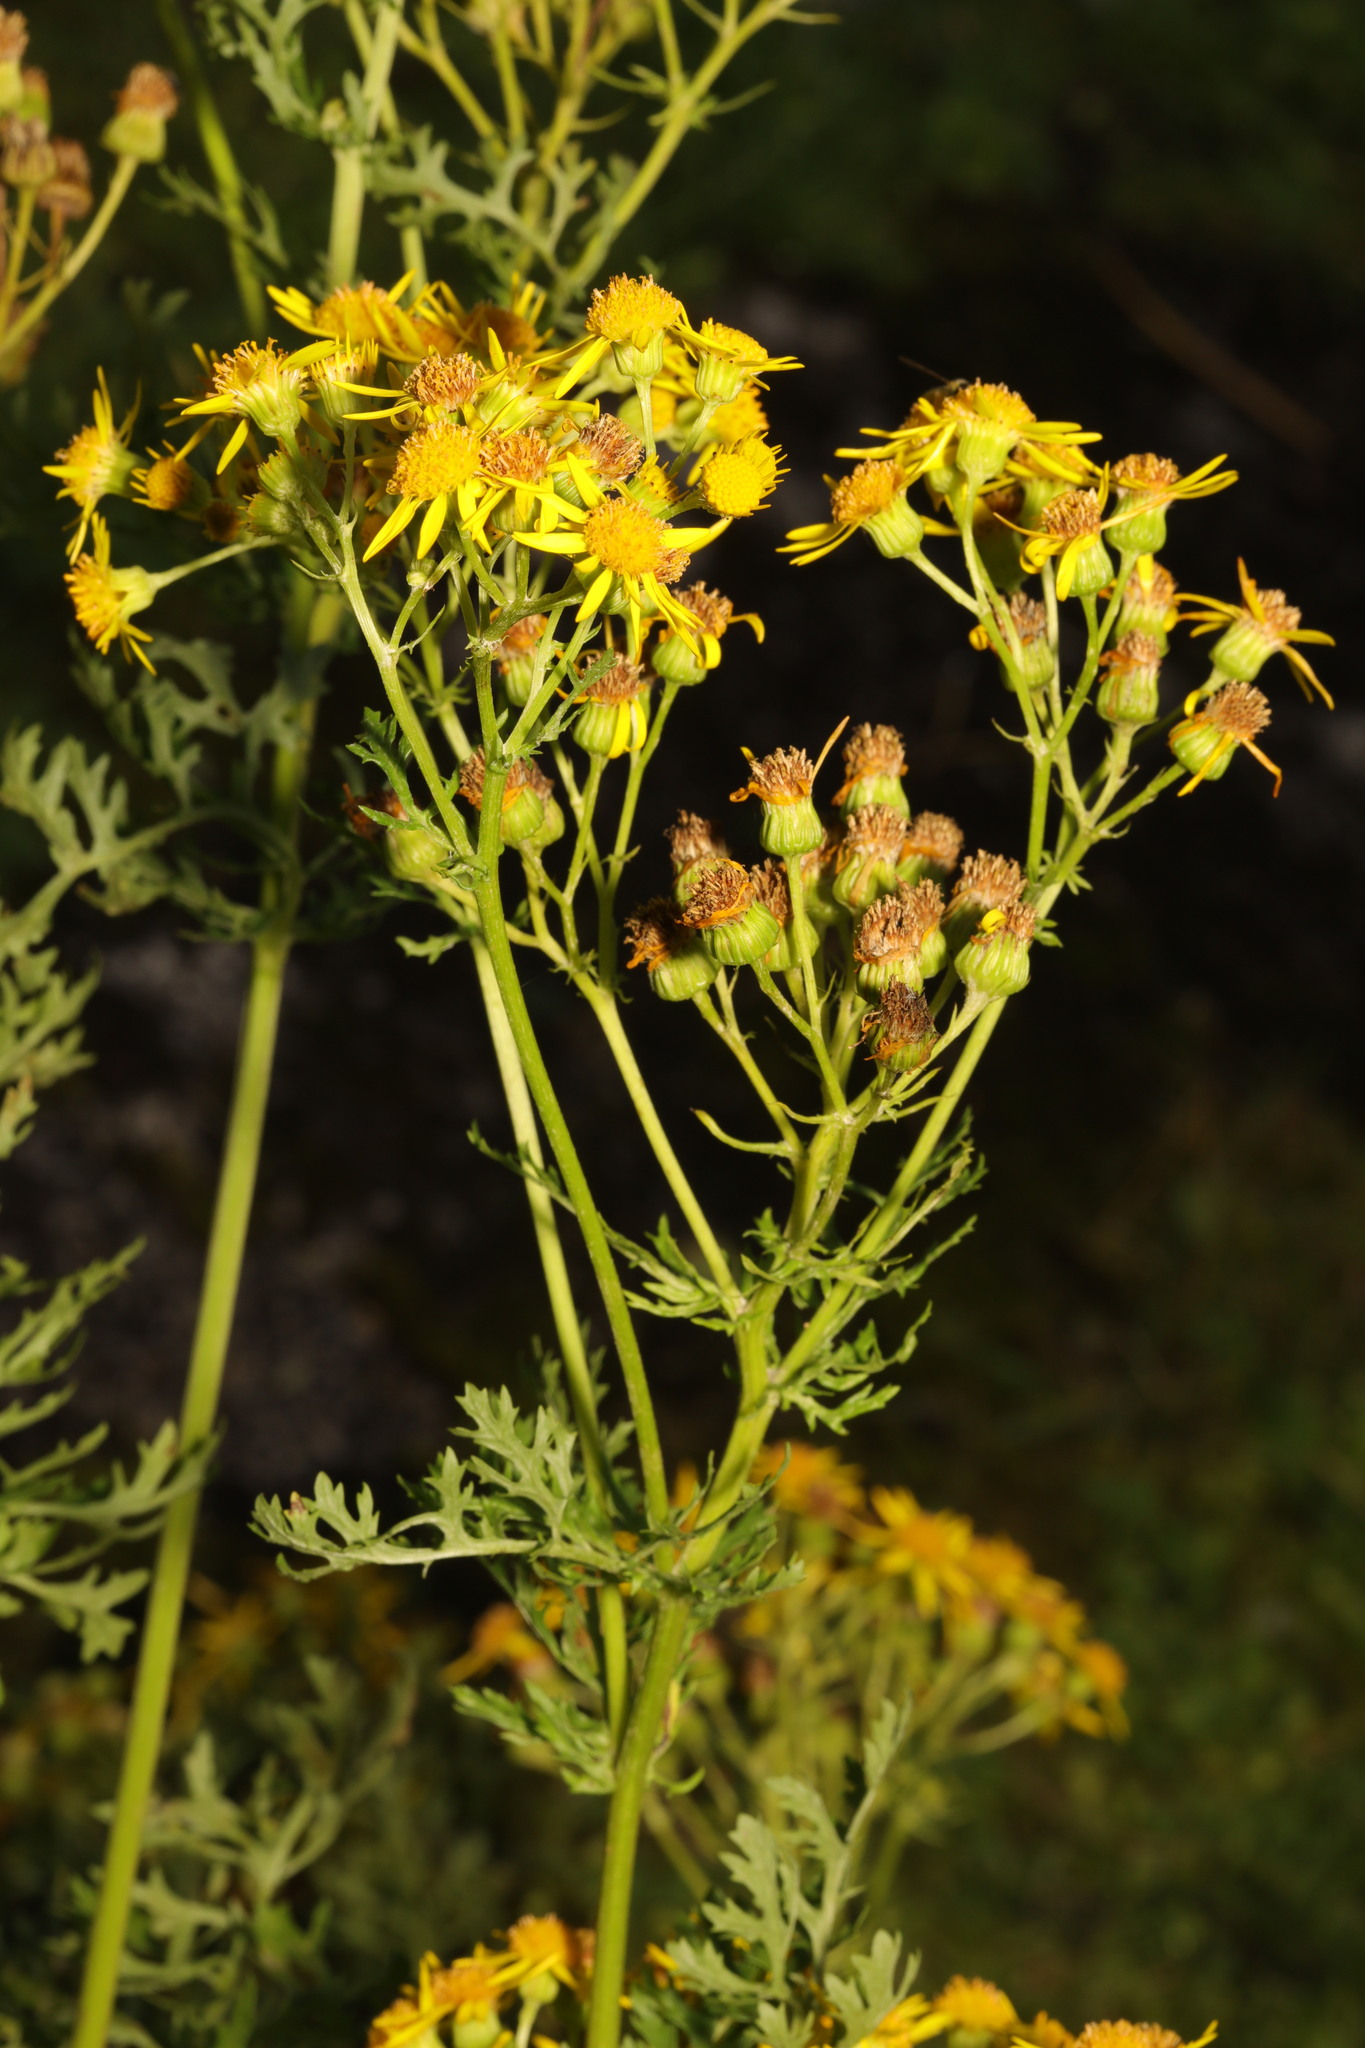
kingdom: Plantae
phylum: Tracheophyta
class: Magnoliopsida
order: Asterales
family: Asteraceae
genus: Jacobaea
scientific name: Jacobaea vulgaris
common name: Stinking willie
